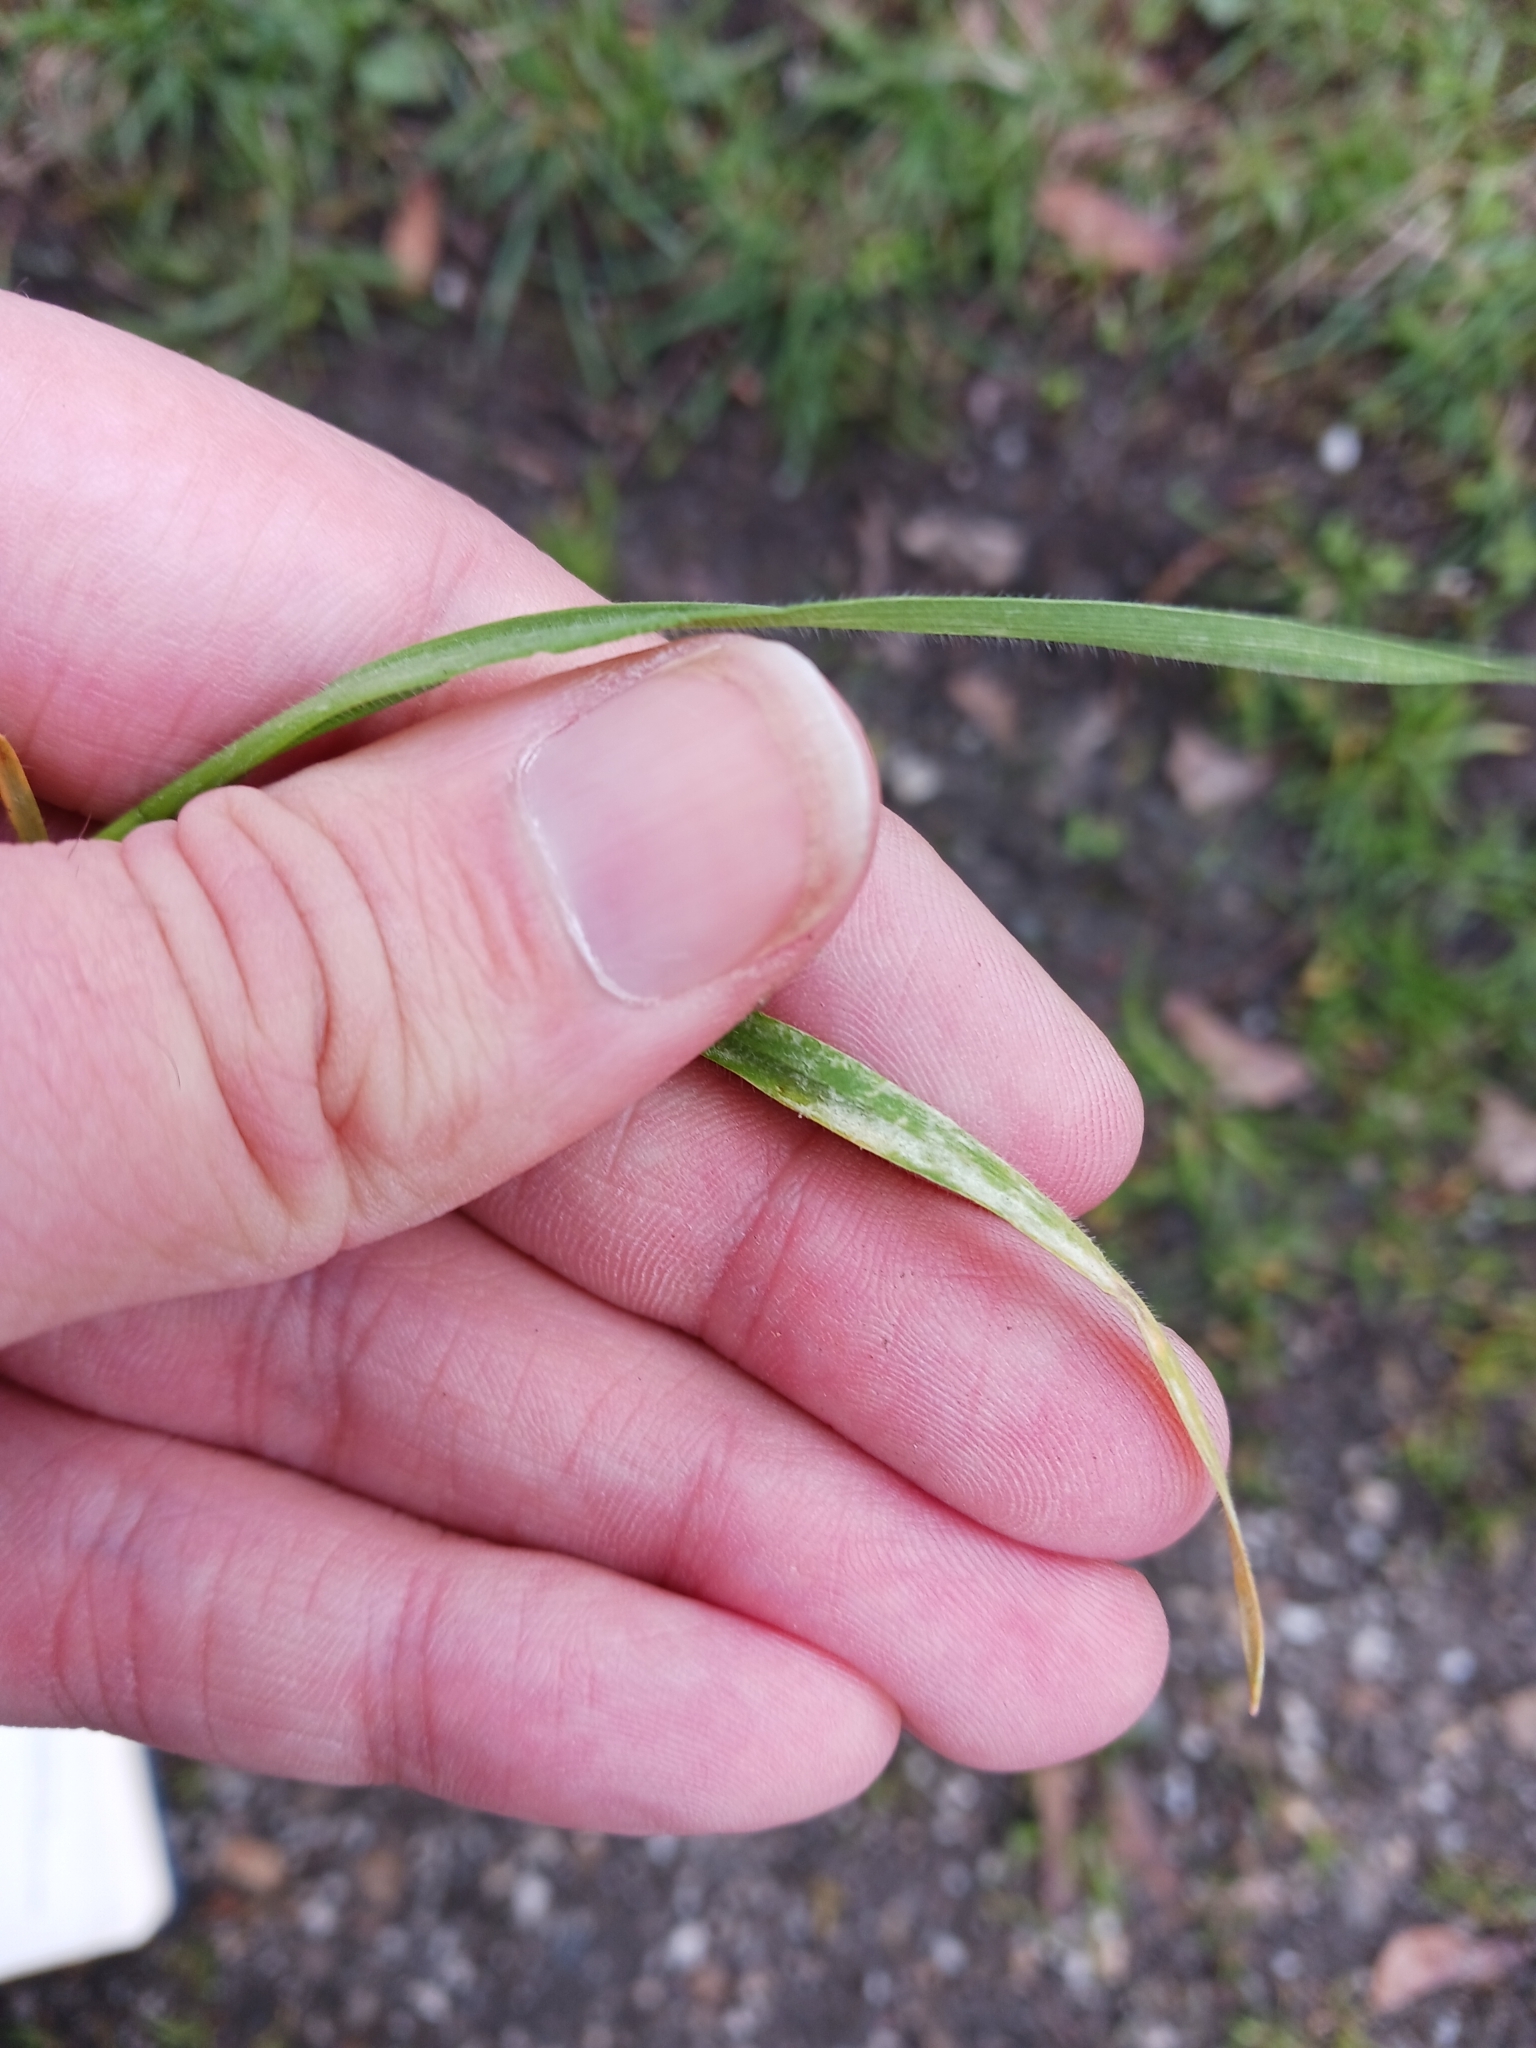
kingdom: Fungi
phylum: Ascomycota
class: Leotiomycetes
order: Helotiales
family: Erysiphaceae
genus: Blumeria
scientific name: Blumeria graminicola
